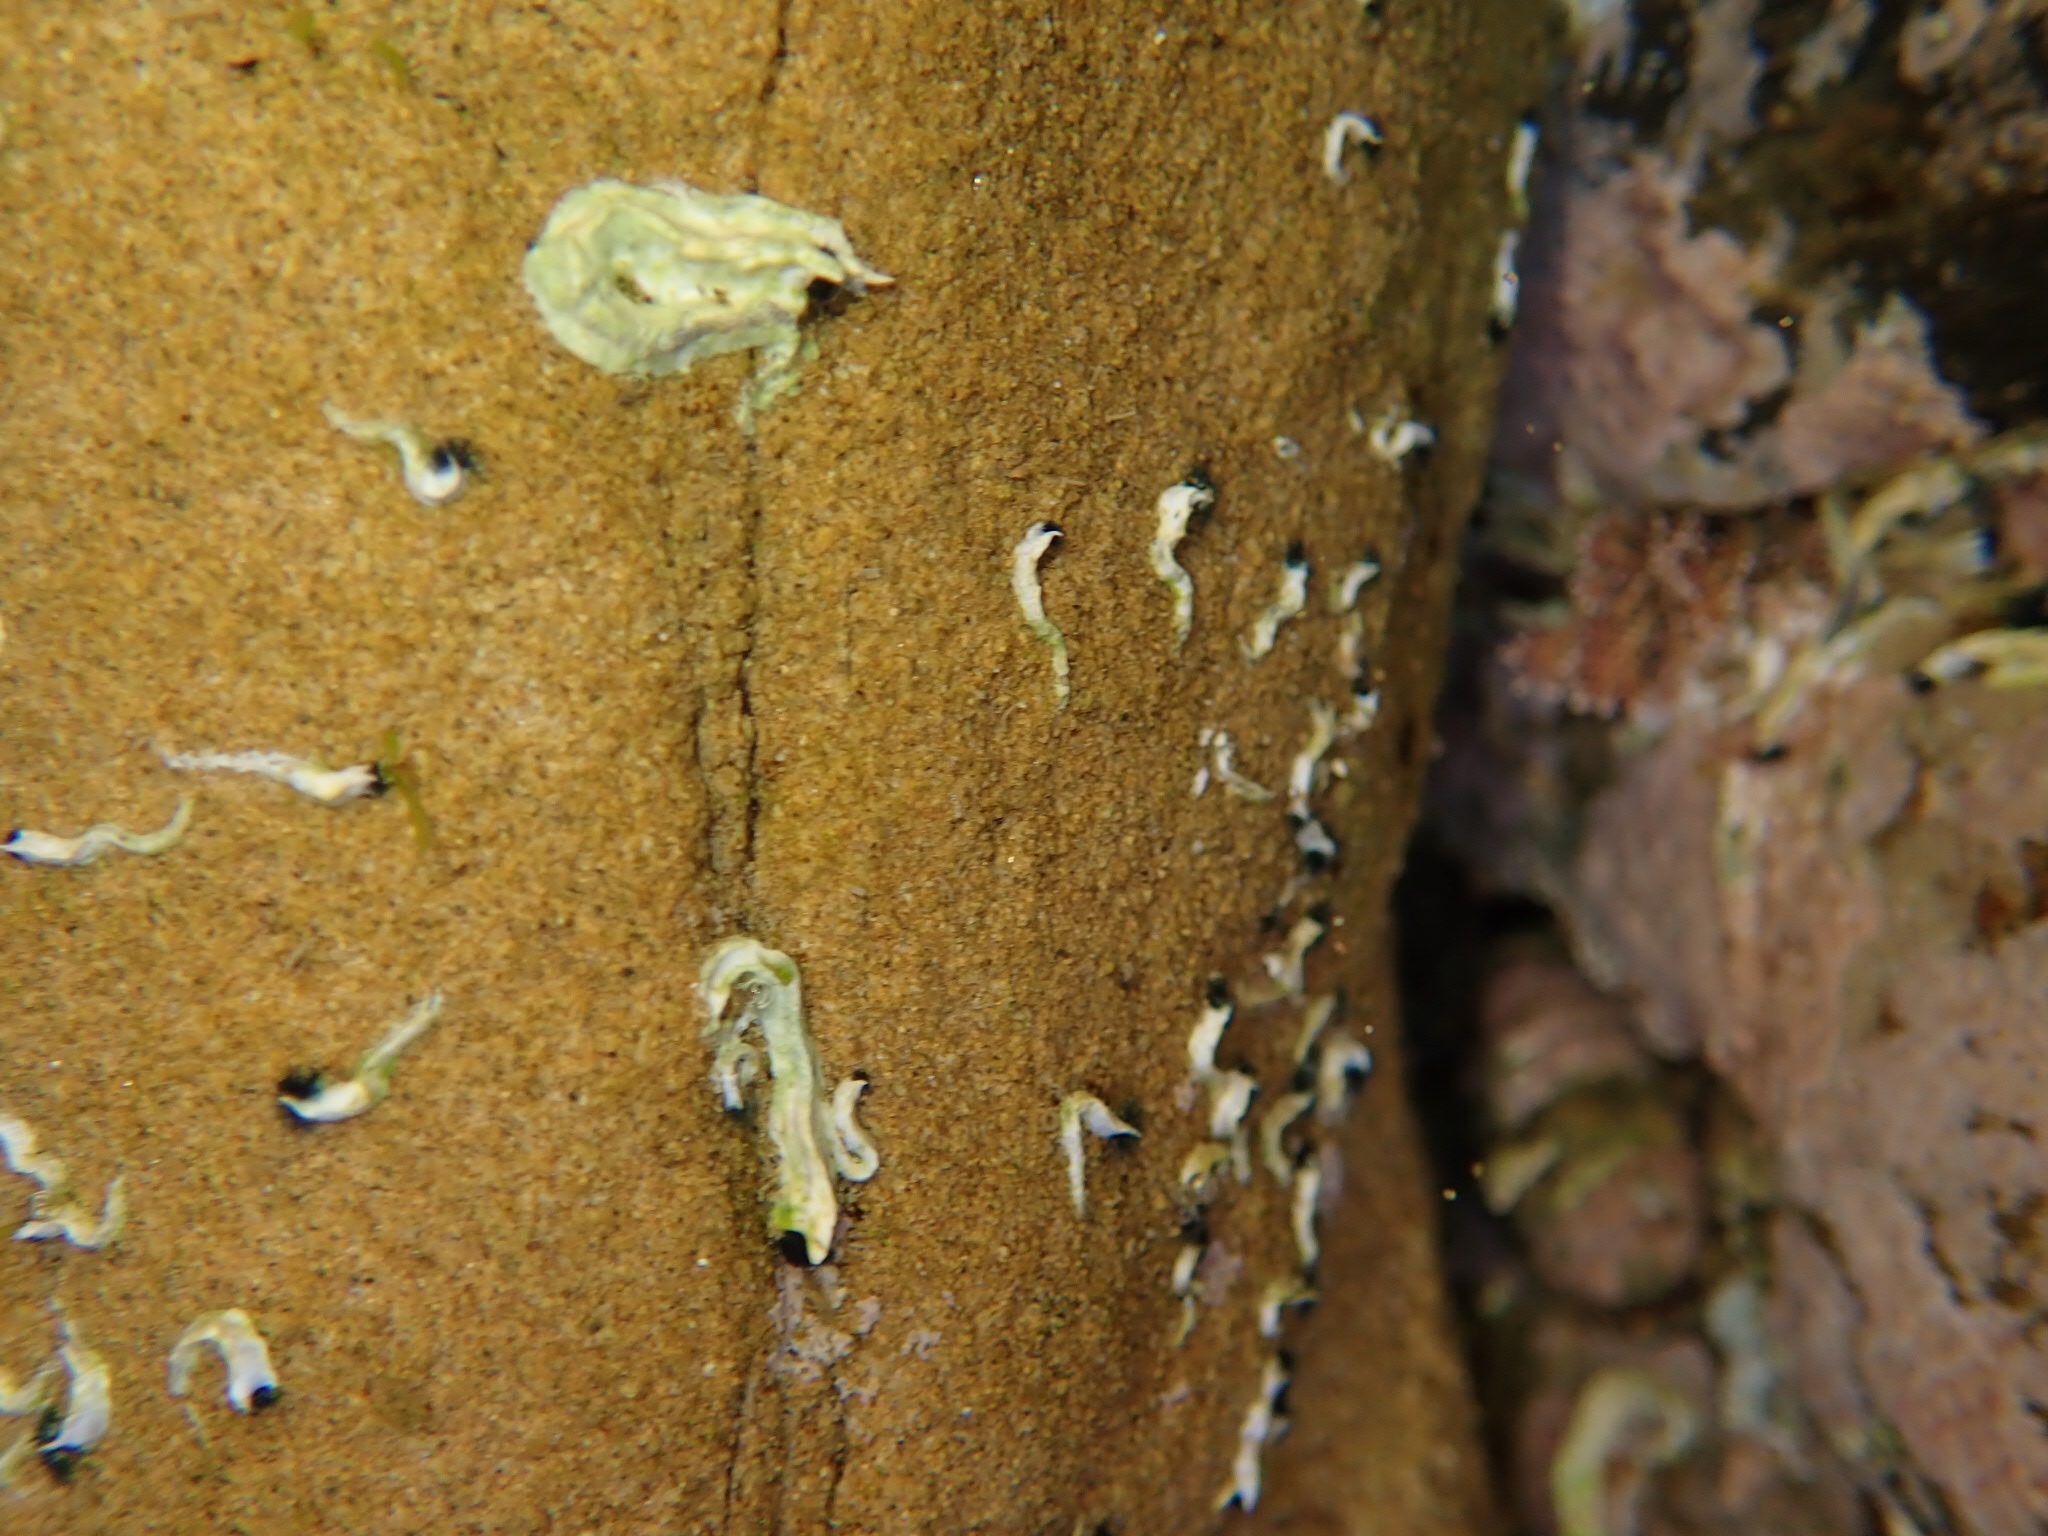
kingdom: Animalia
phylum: Annelida
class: Polychaeta
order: Sabellida
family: Serpulidae
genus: Spirobranchus
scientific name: Spirobranchus cariniferus
